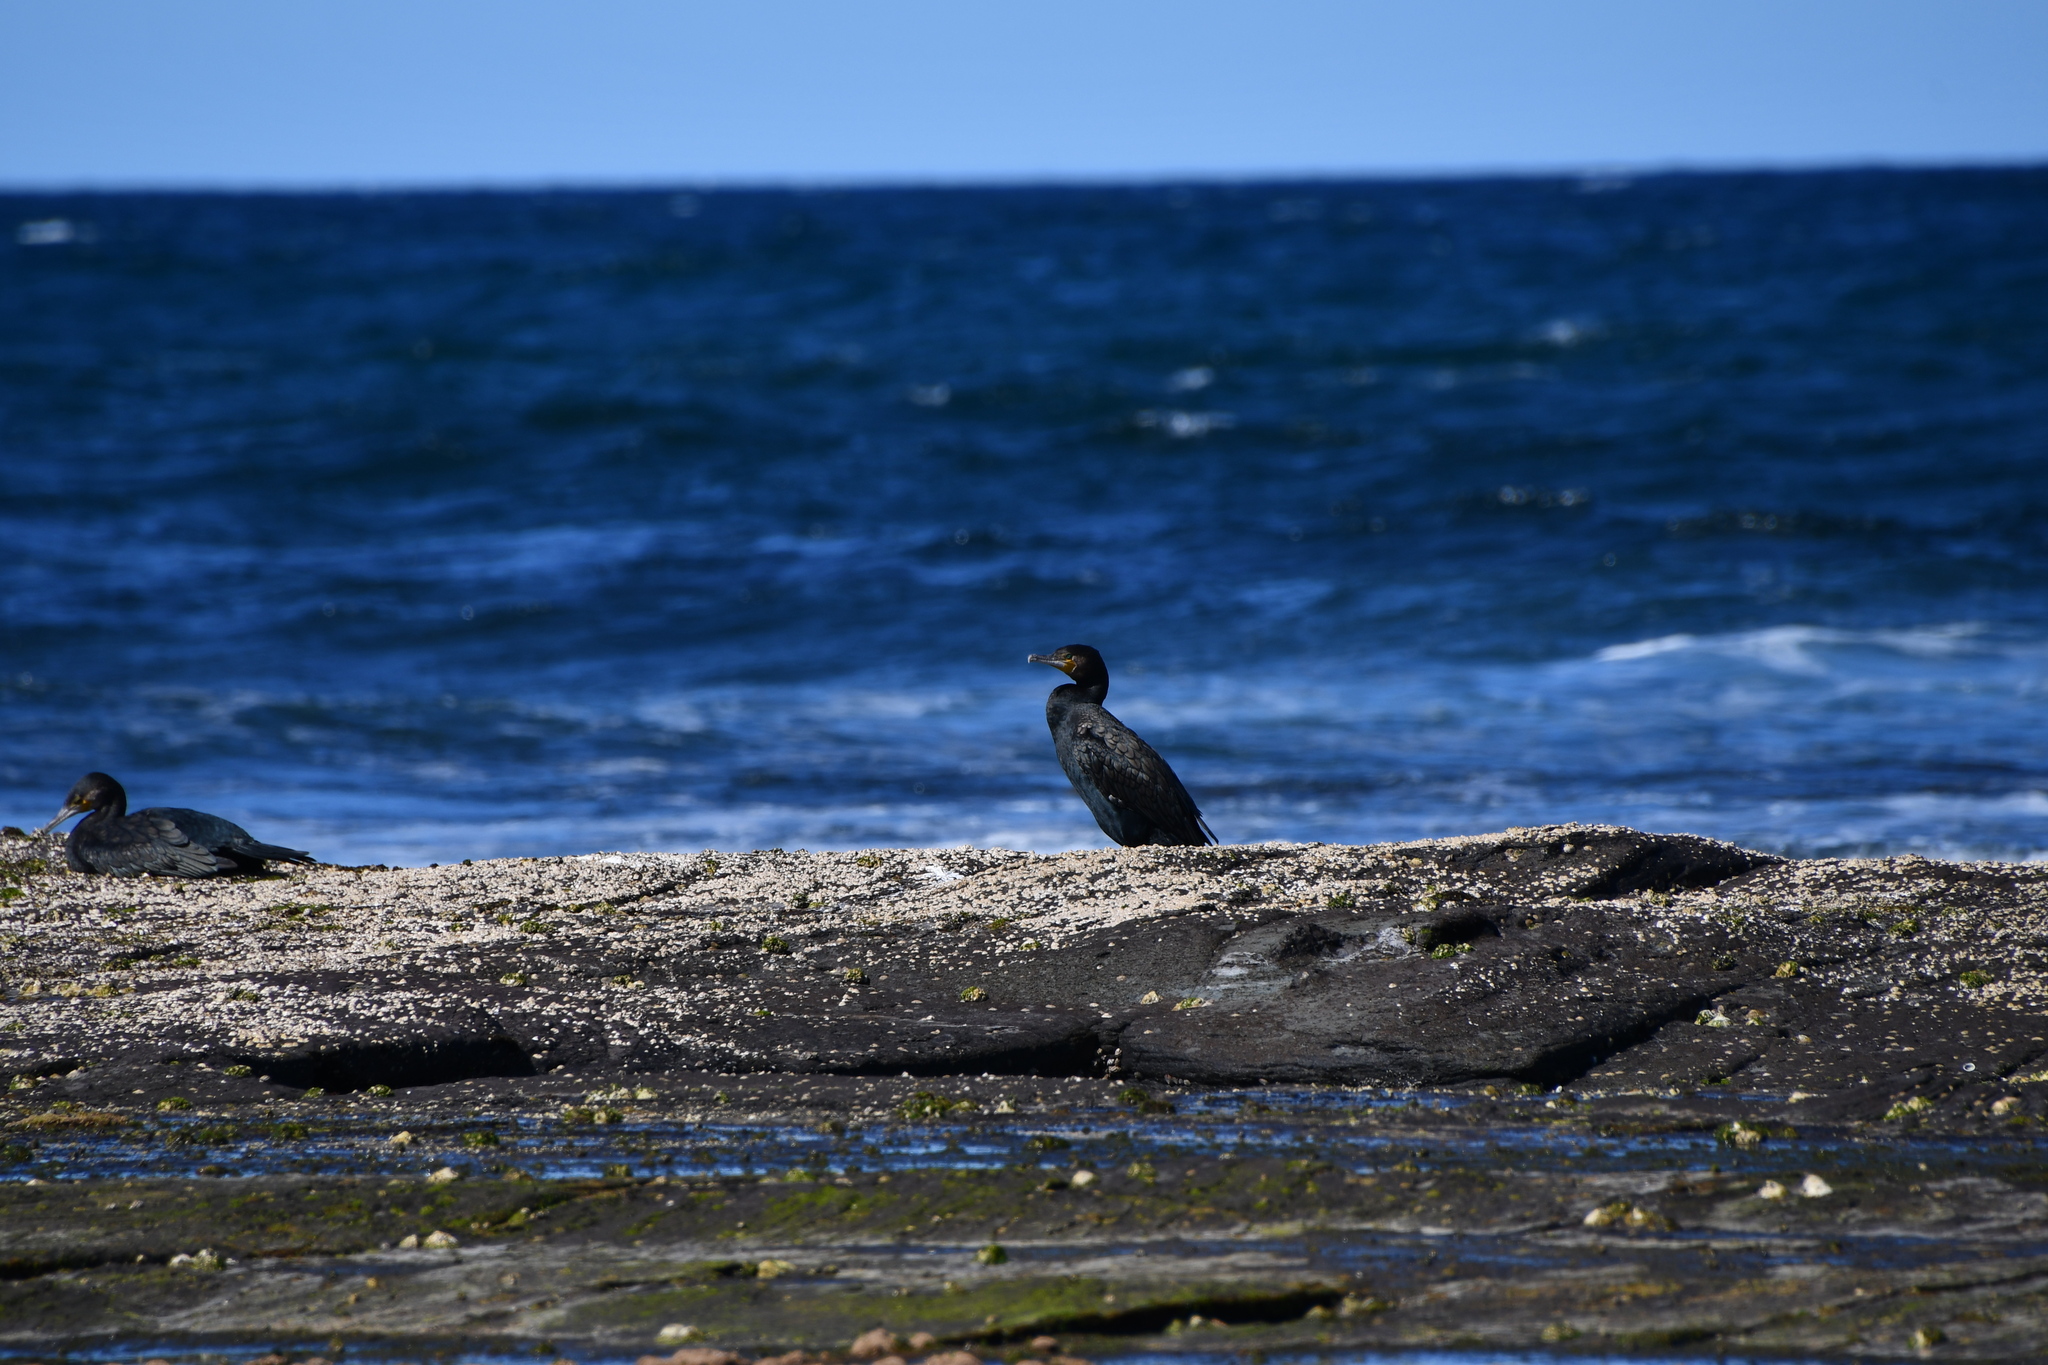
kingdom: Animalia
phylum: Chordata
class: Aves
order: Suliformes
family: Phalacrocoracidae
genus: Phalacrocorax
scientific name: Phalacrocorax carbo
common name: Great cormorant
